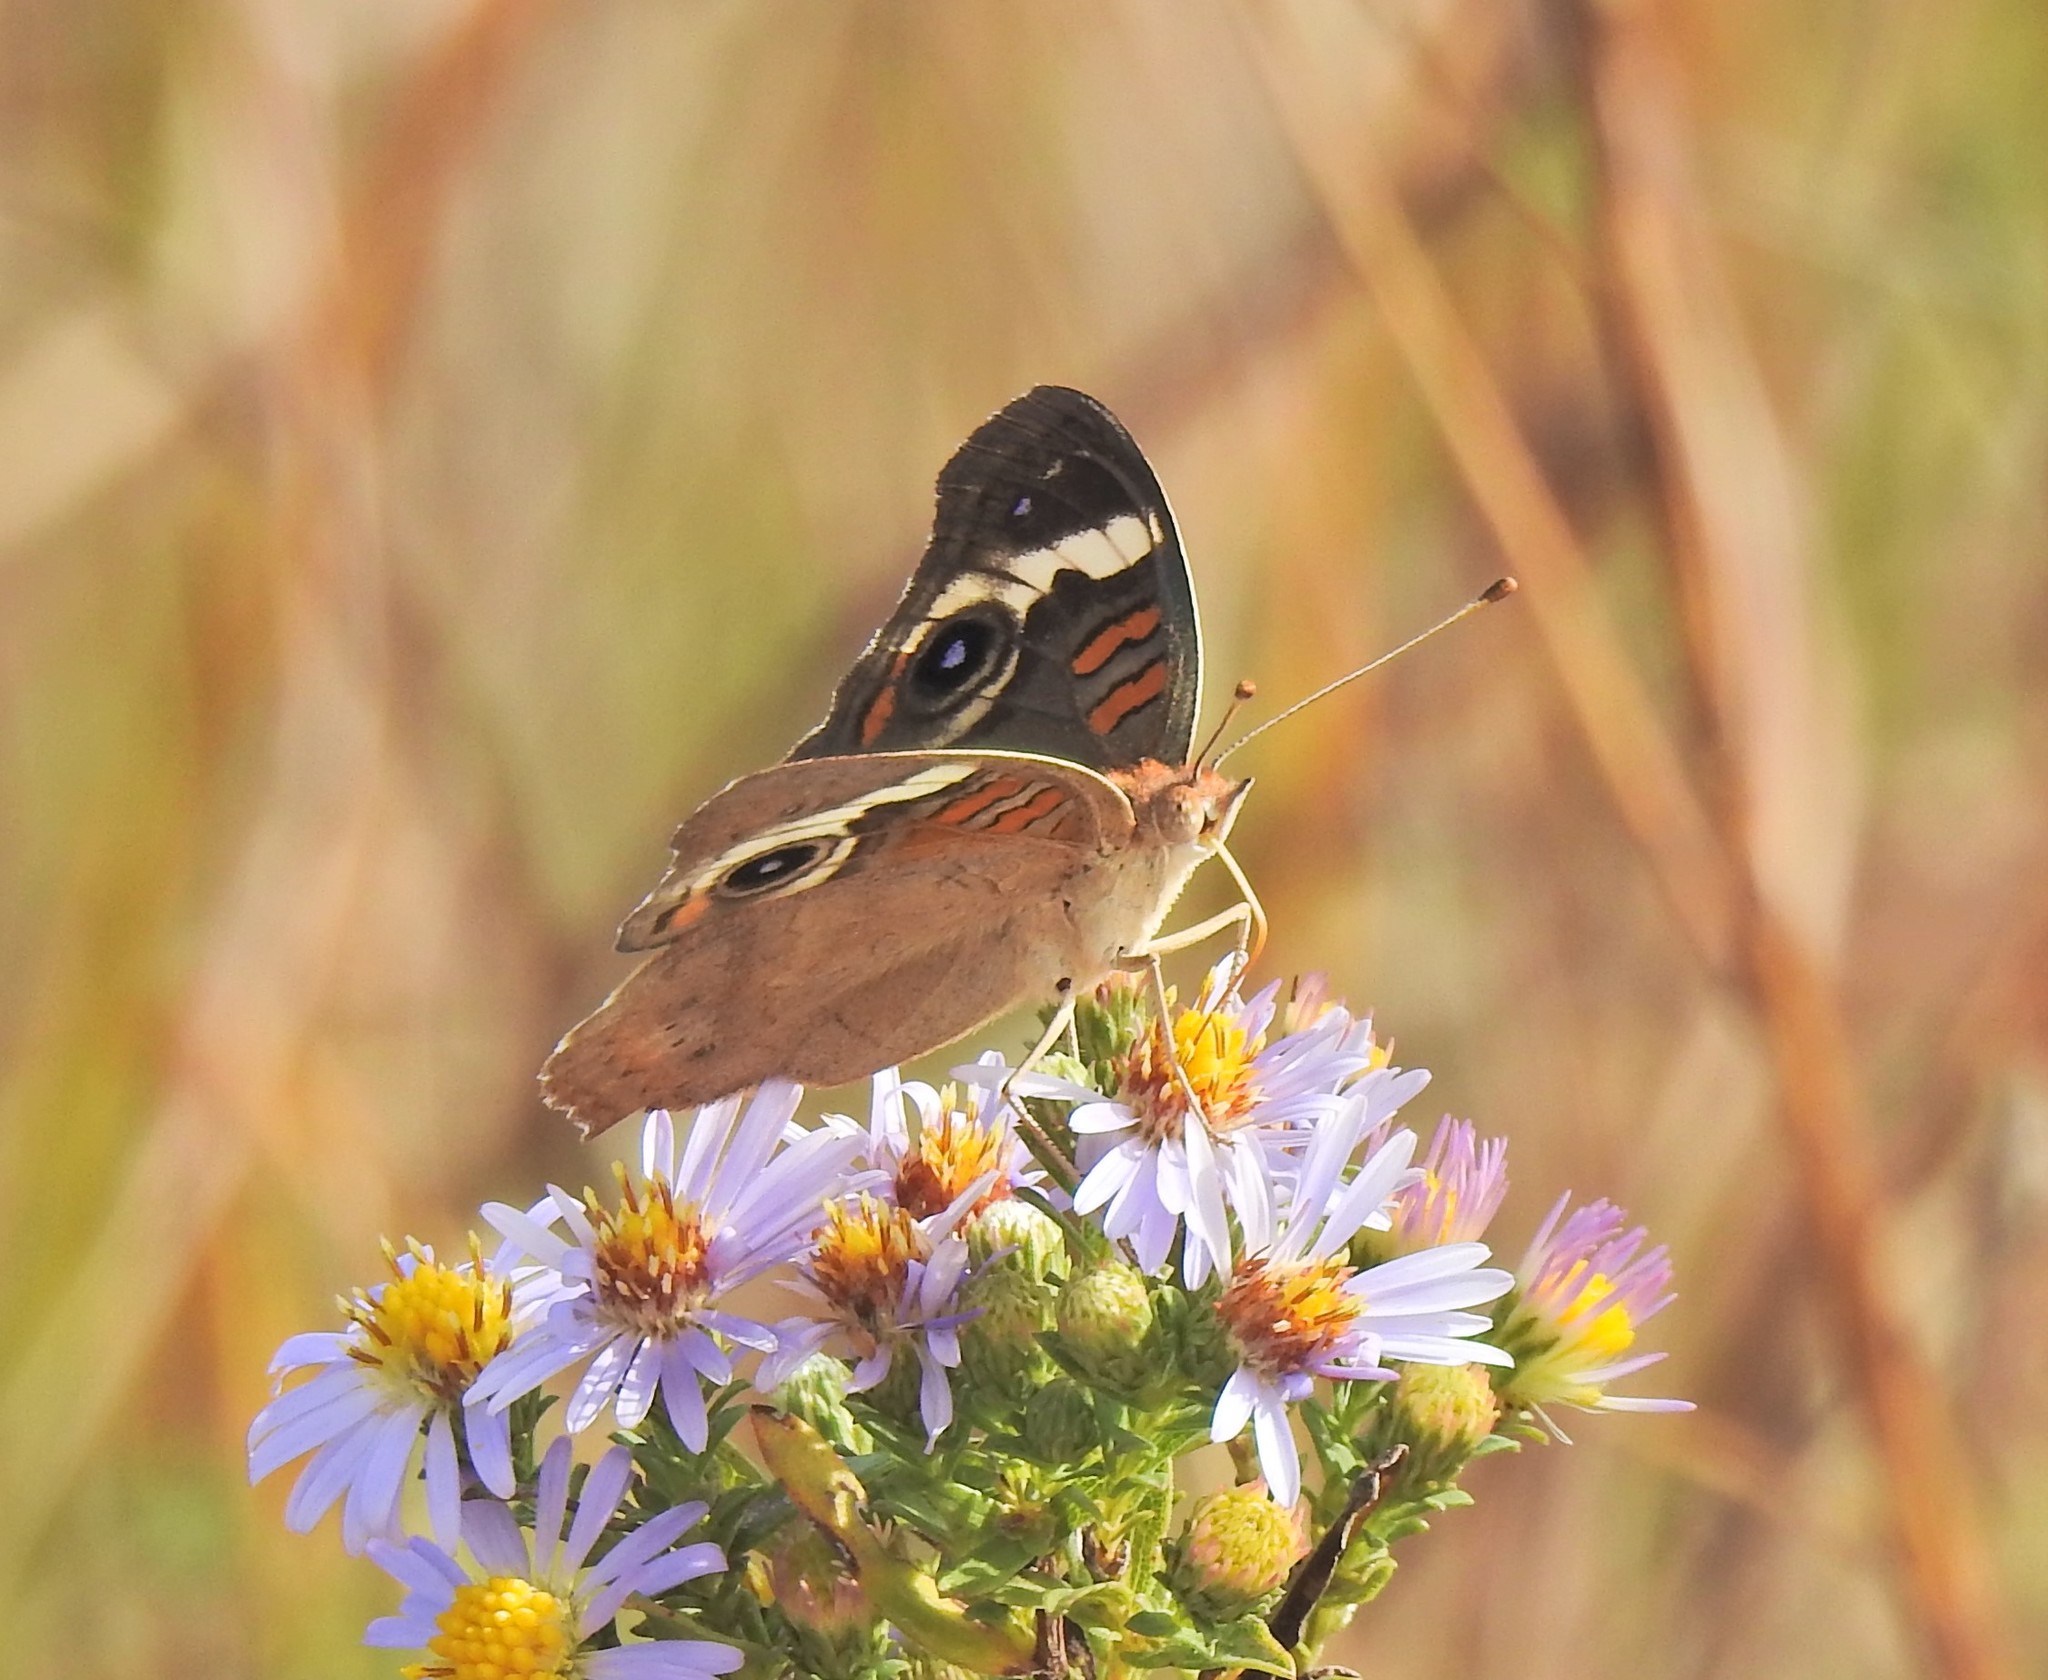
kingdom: Animalia
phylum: Arthropoda
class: Insecta
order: Lepidoptera
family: Nymphalidae
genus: Junonia
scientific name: Junonia coenia
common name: Common buckeye
